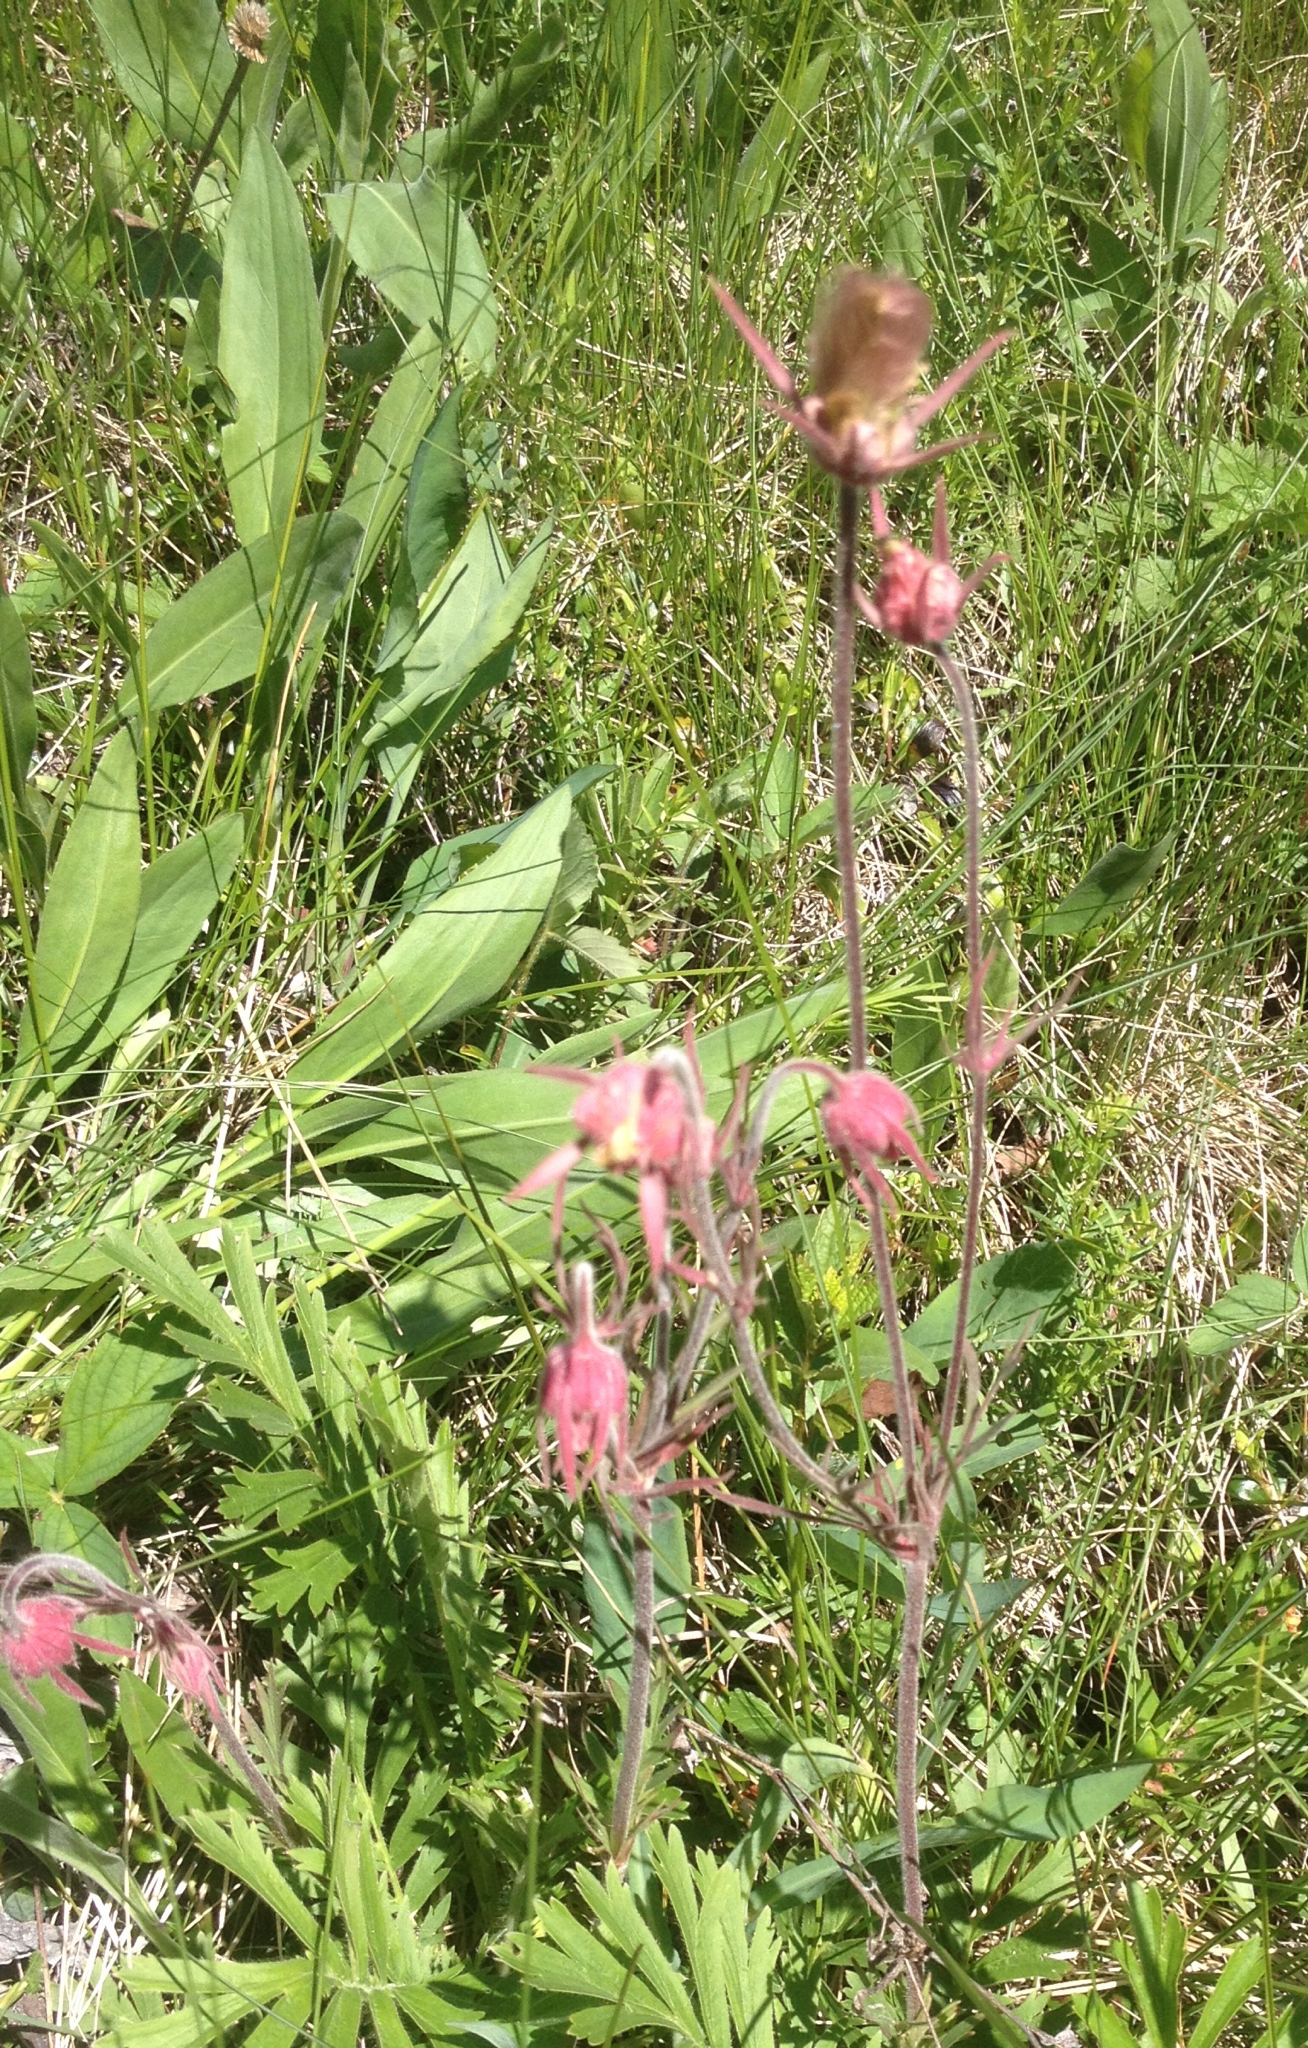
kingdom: Plantae
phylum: Tracheophyta
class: Magnoliopsida
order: Rosales
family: Rosaceae
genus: Geum
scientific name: Geum triflorum
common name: Old man's whiskers
